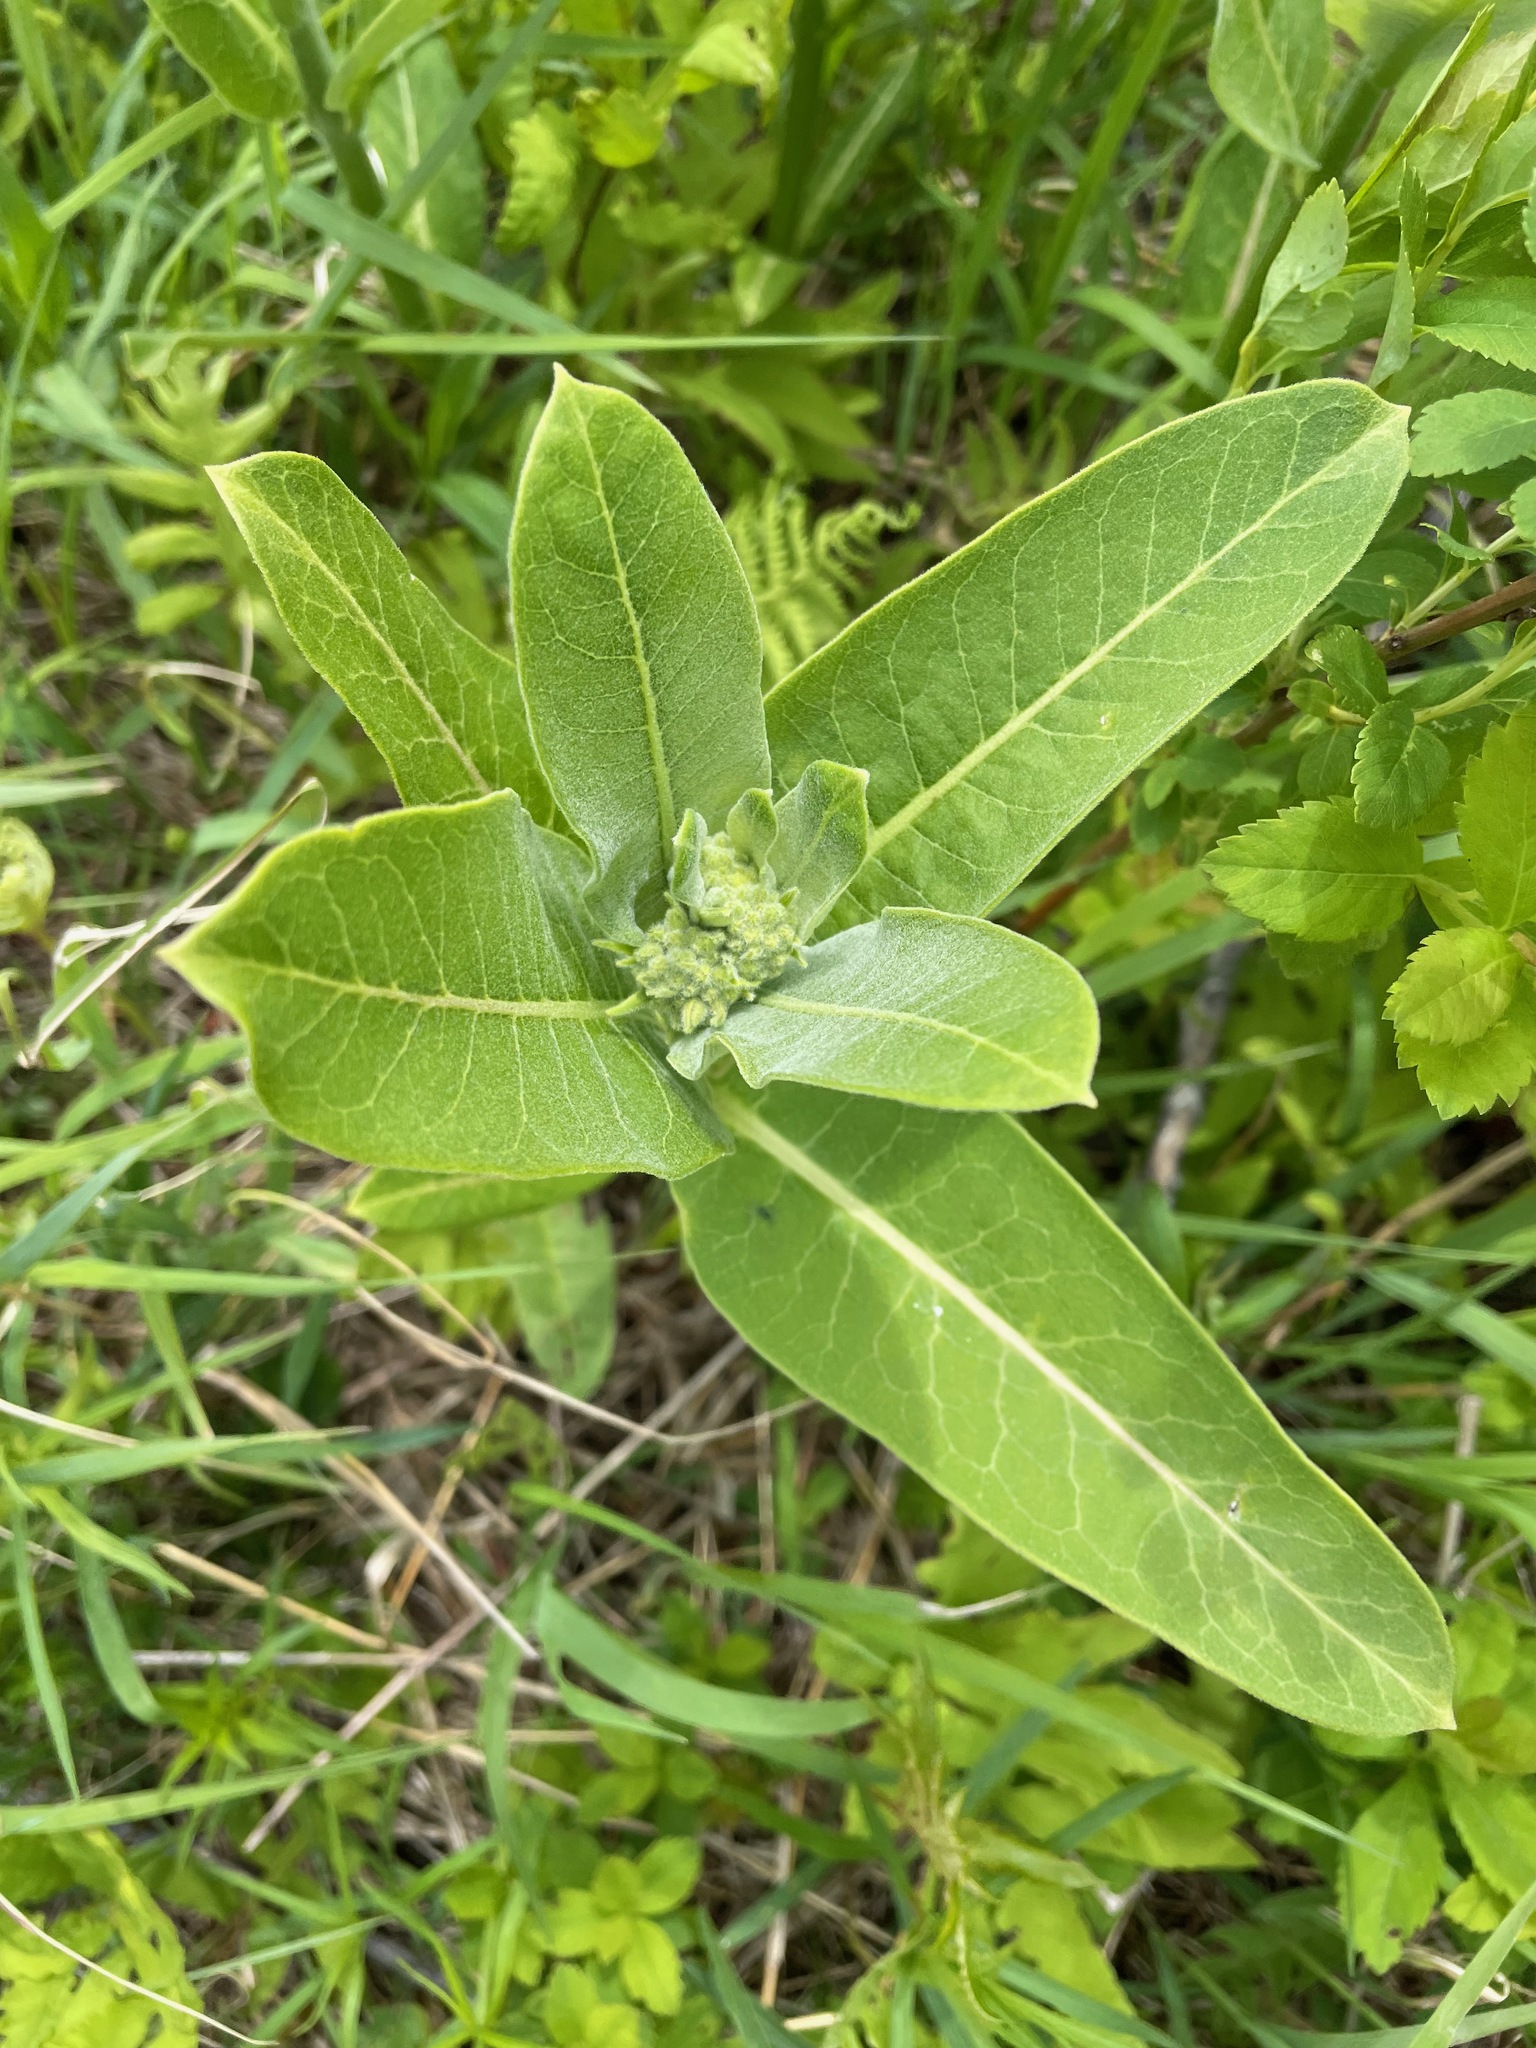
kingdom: Plantae
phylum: Tracheophyta
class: Magnoliopsida
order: Gentianales
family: Apocynaceae
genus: Asclepias
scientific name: Asclepias syriaca
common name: Common milkweed
